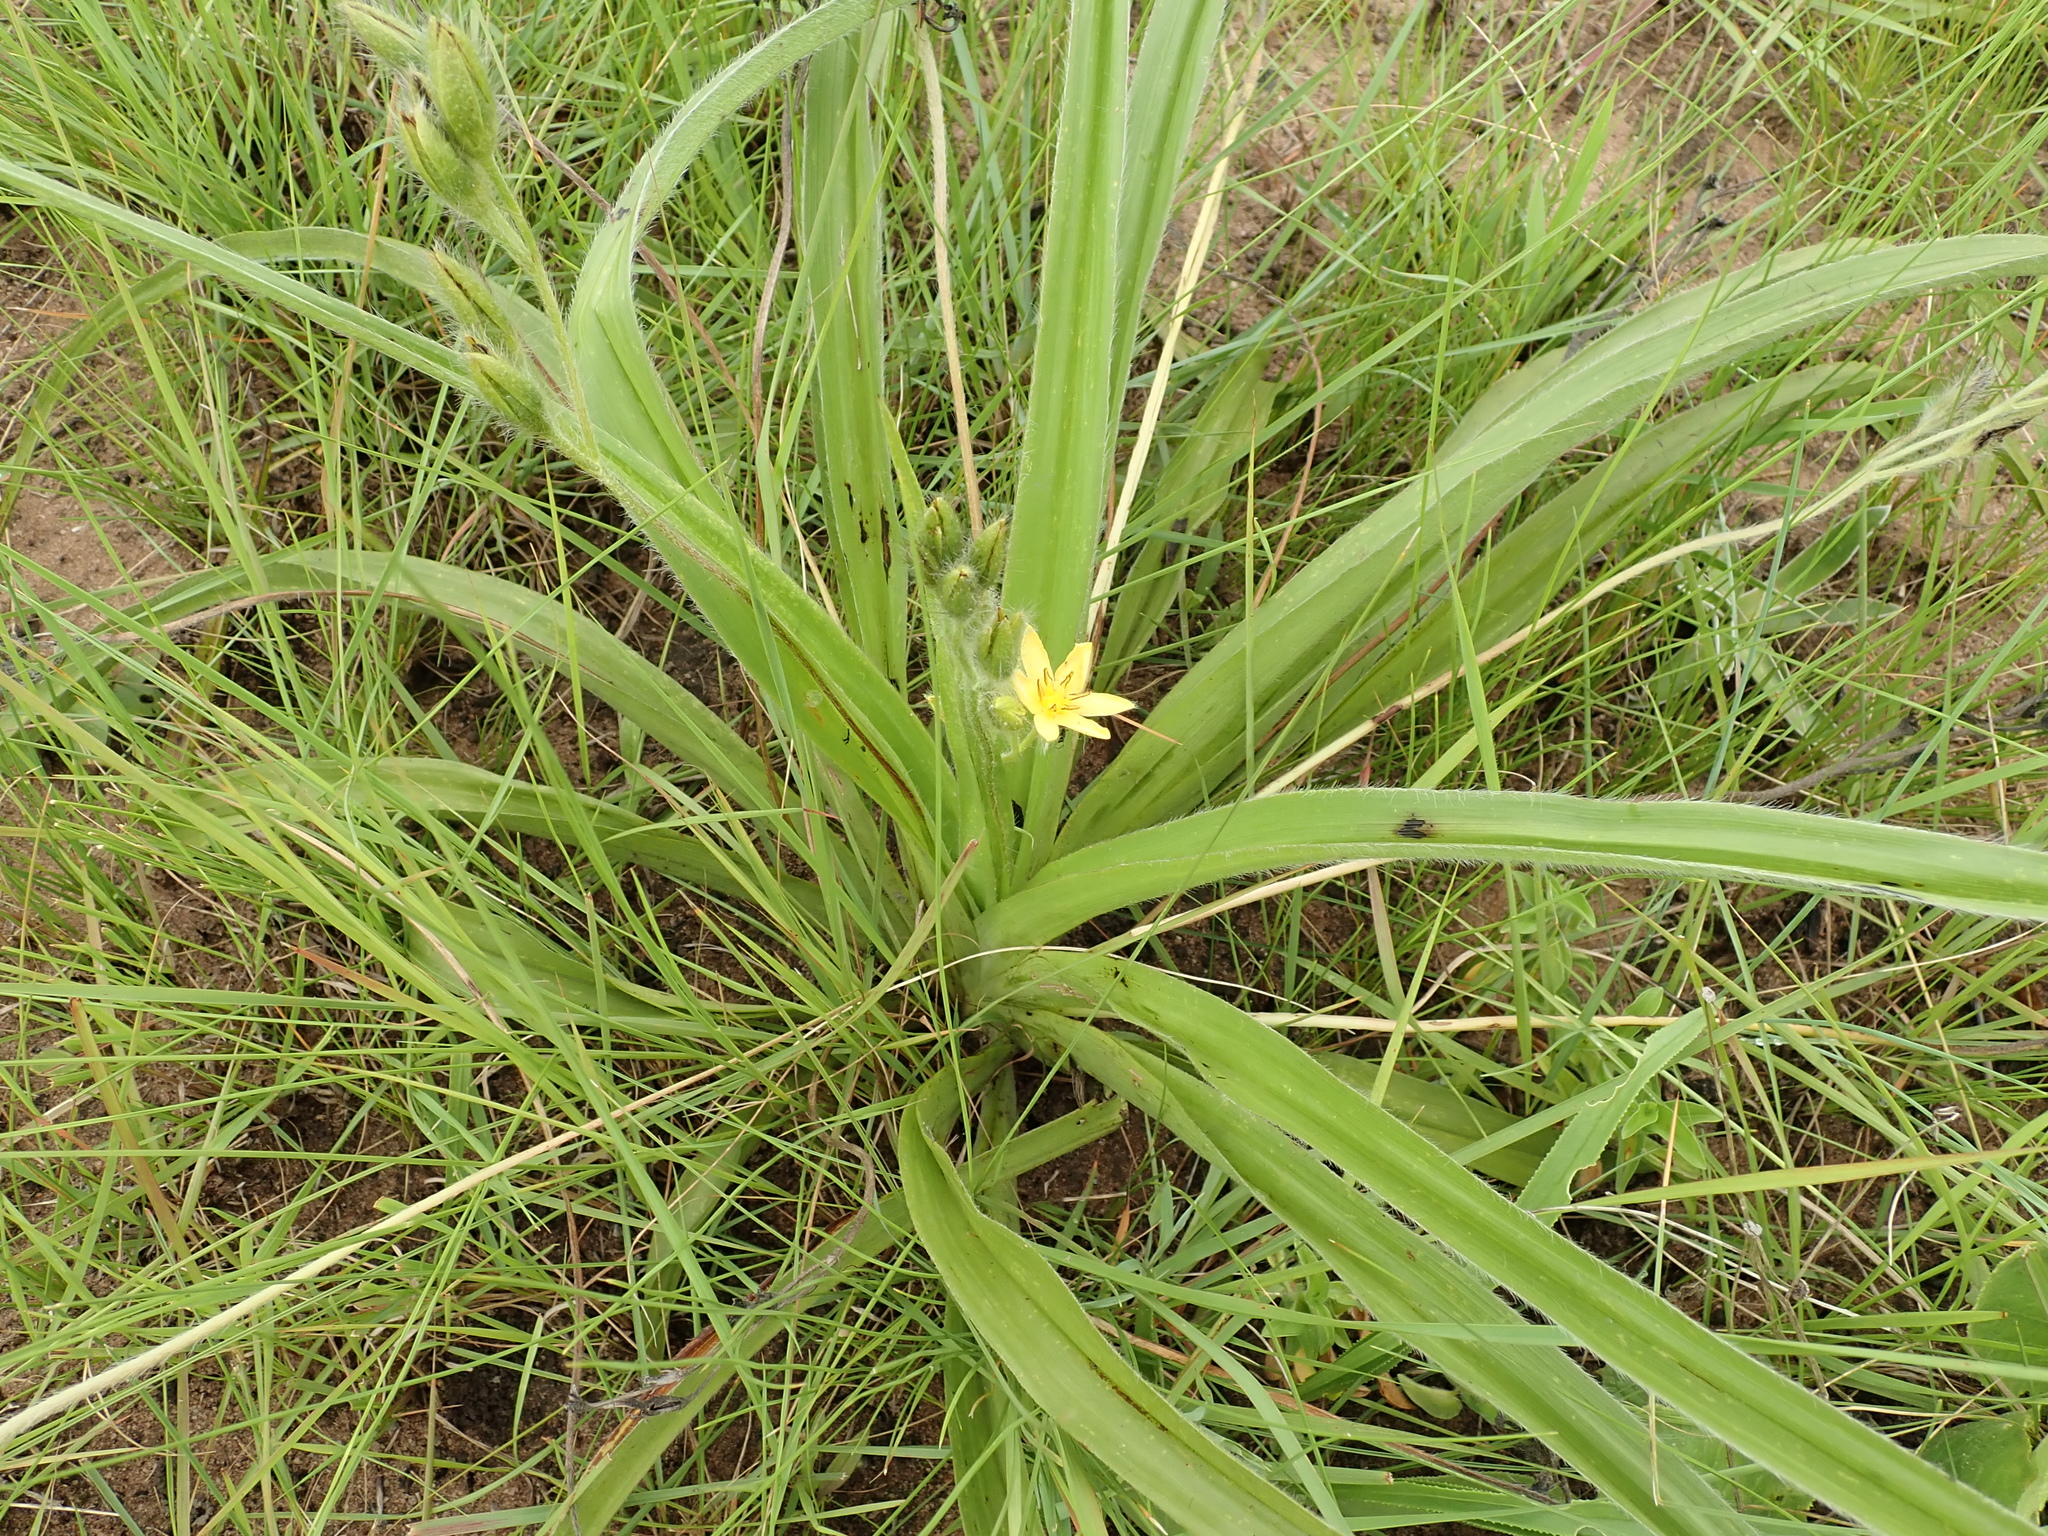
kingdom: Plantae
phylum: Tracheophyta
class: Liliopsida
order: Asparagales
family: Hypoxidaceae
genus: Hypoxis
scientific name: Hypoxis obtusa
